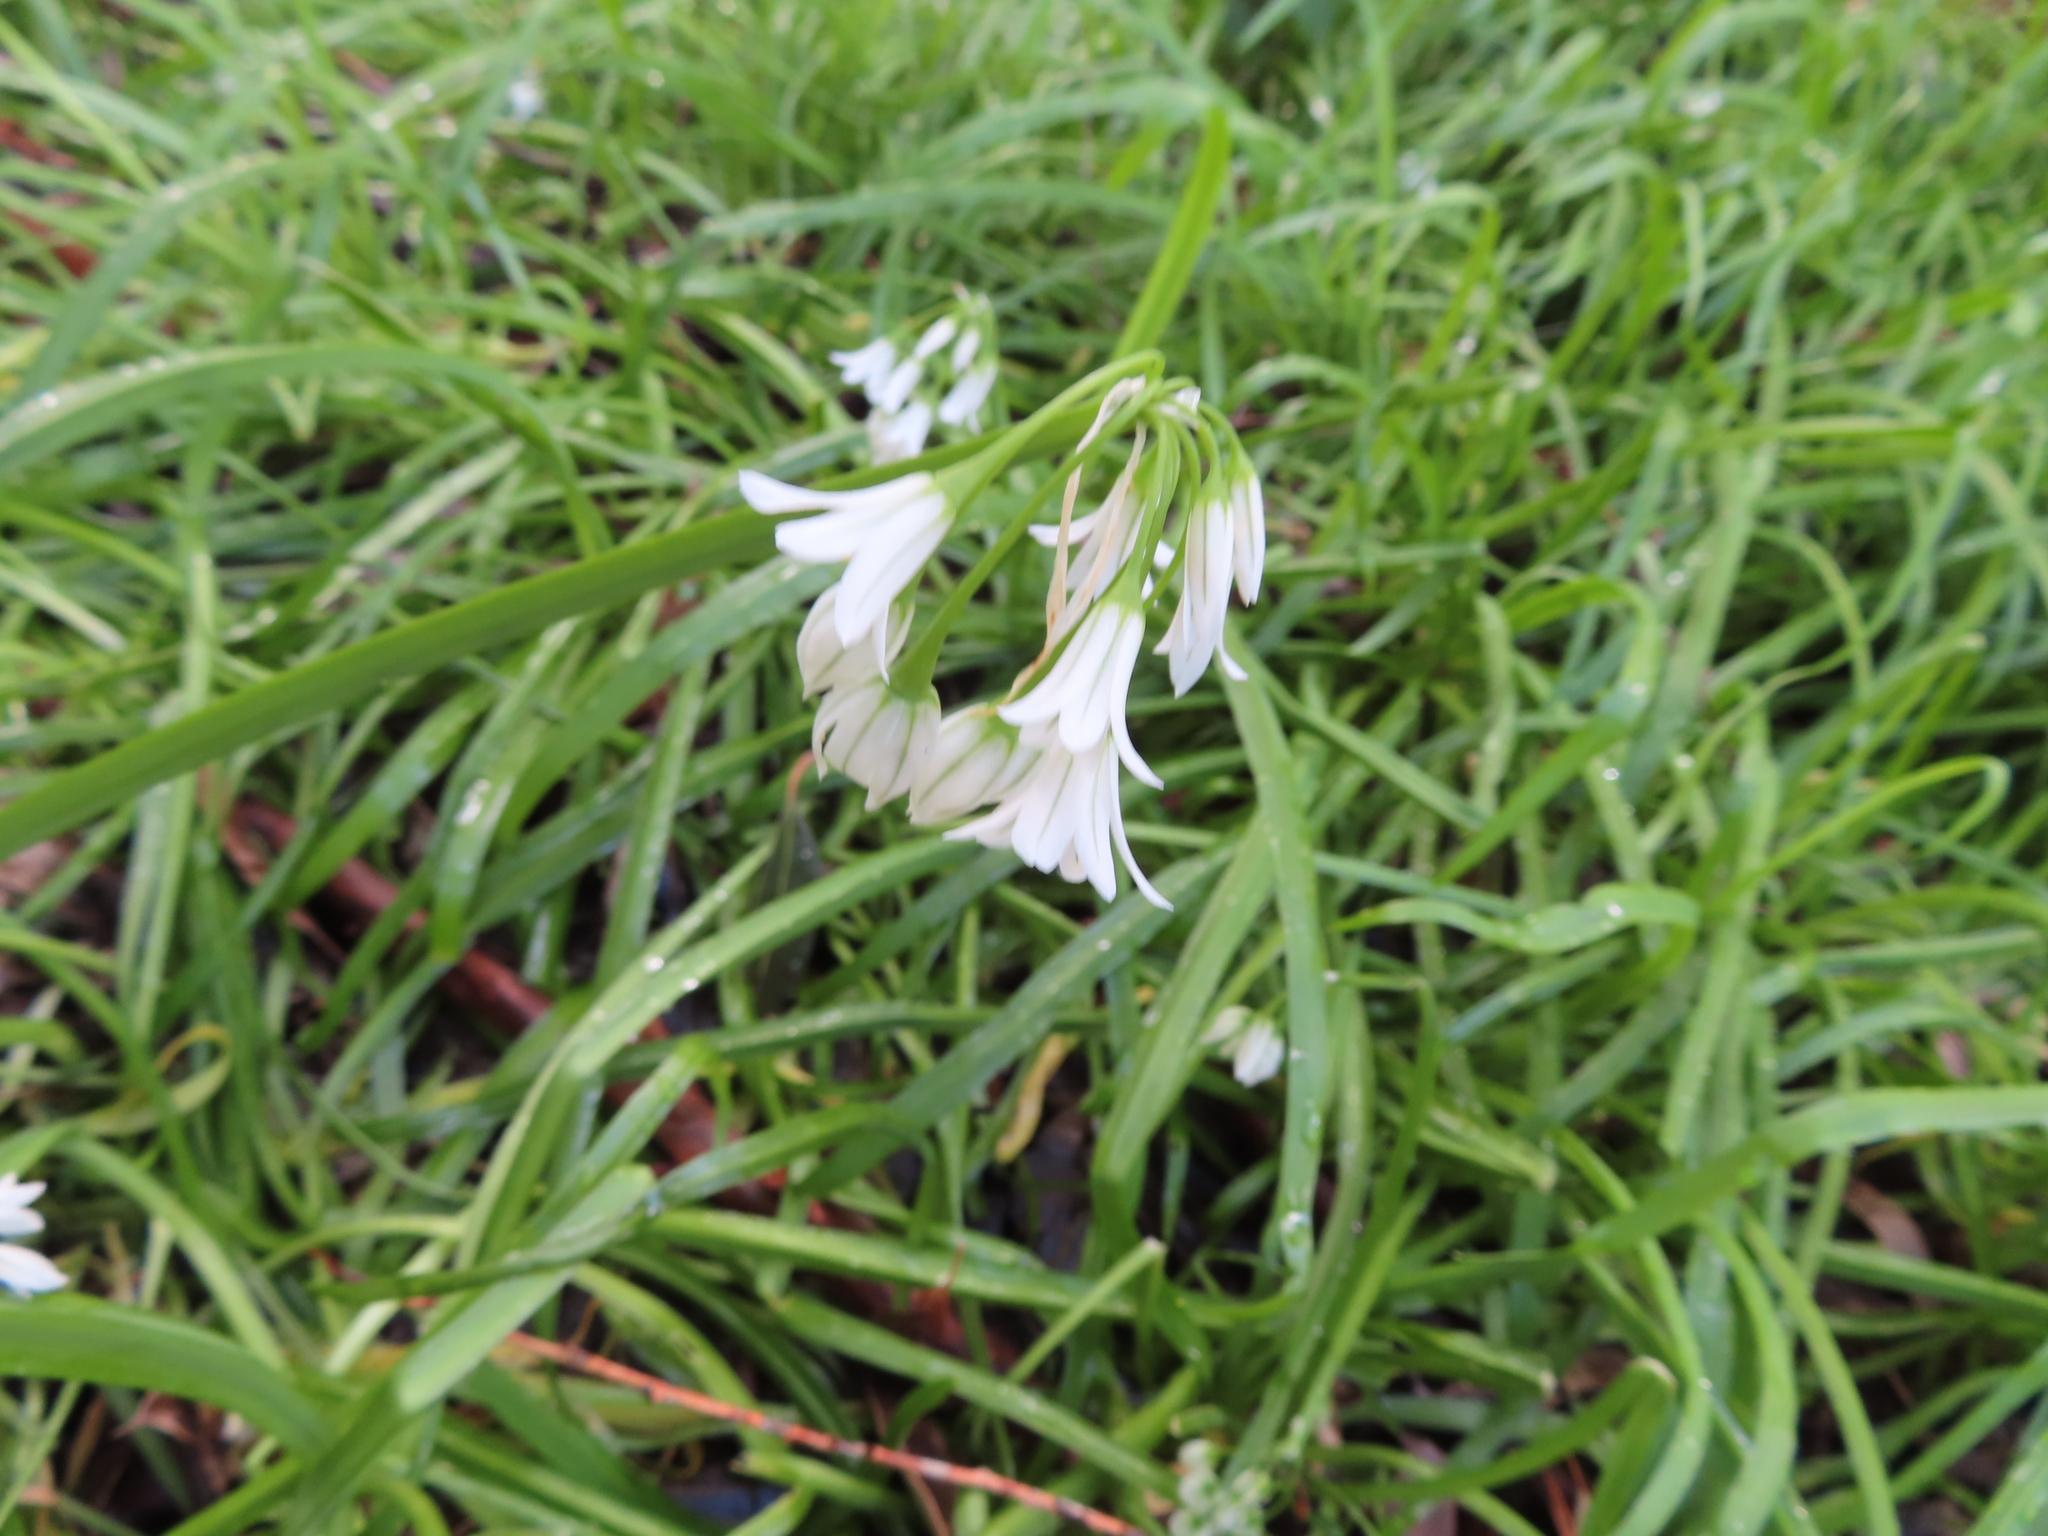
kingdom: Plantae
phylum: Tracheophyta
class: Liliopsida
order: Asparagales
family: Amaryllidaceae
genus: Allium
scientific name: Allium triquetrum
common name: Three-cornered garlic
